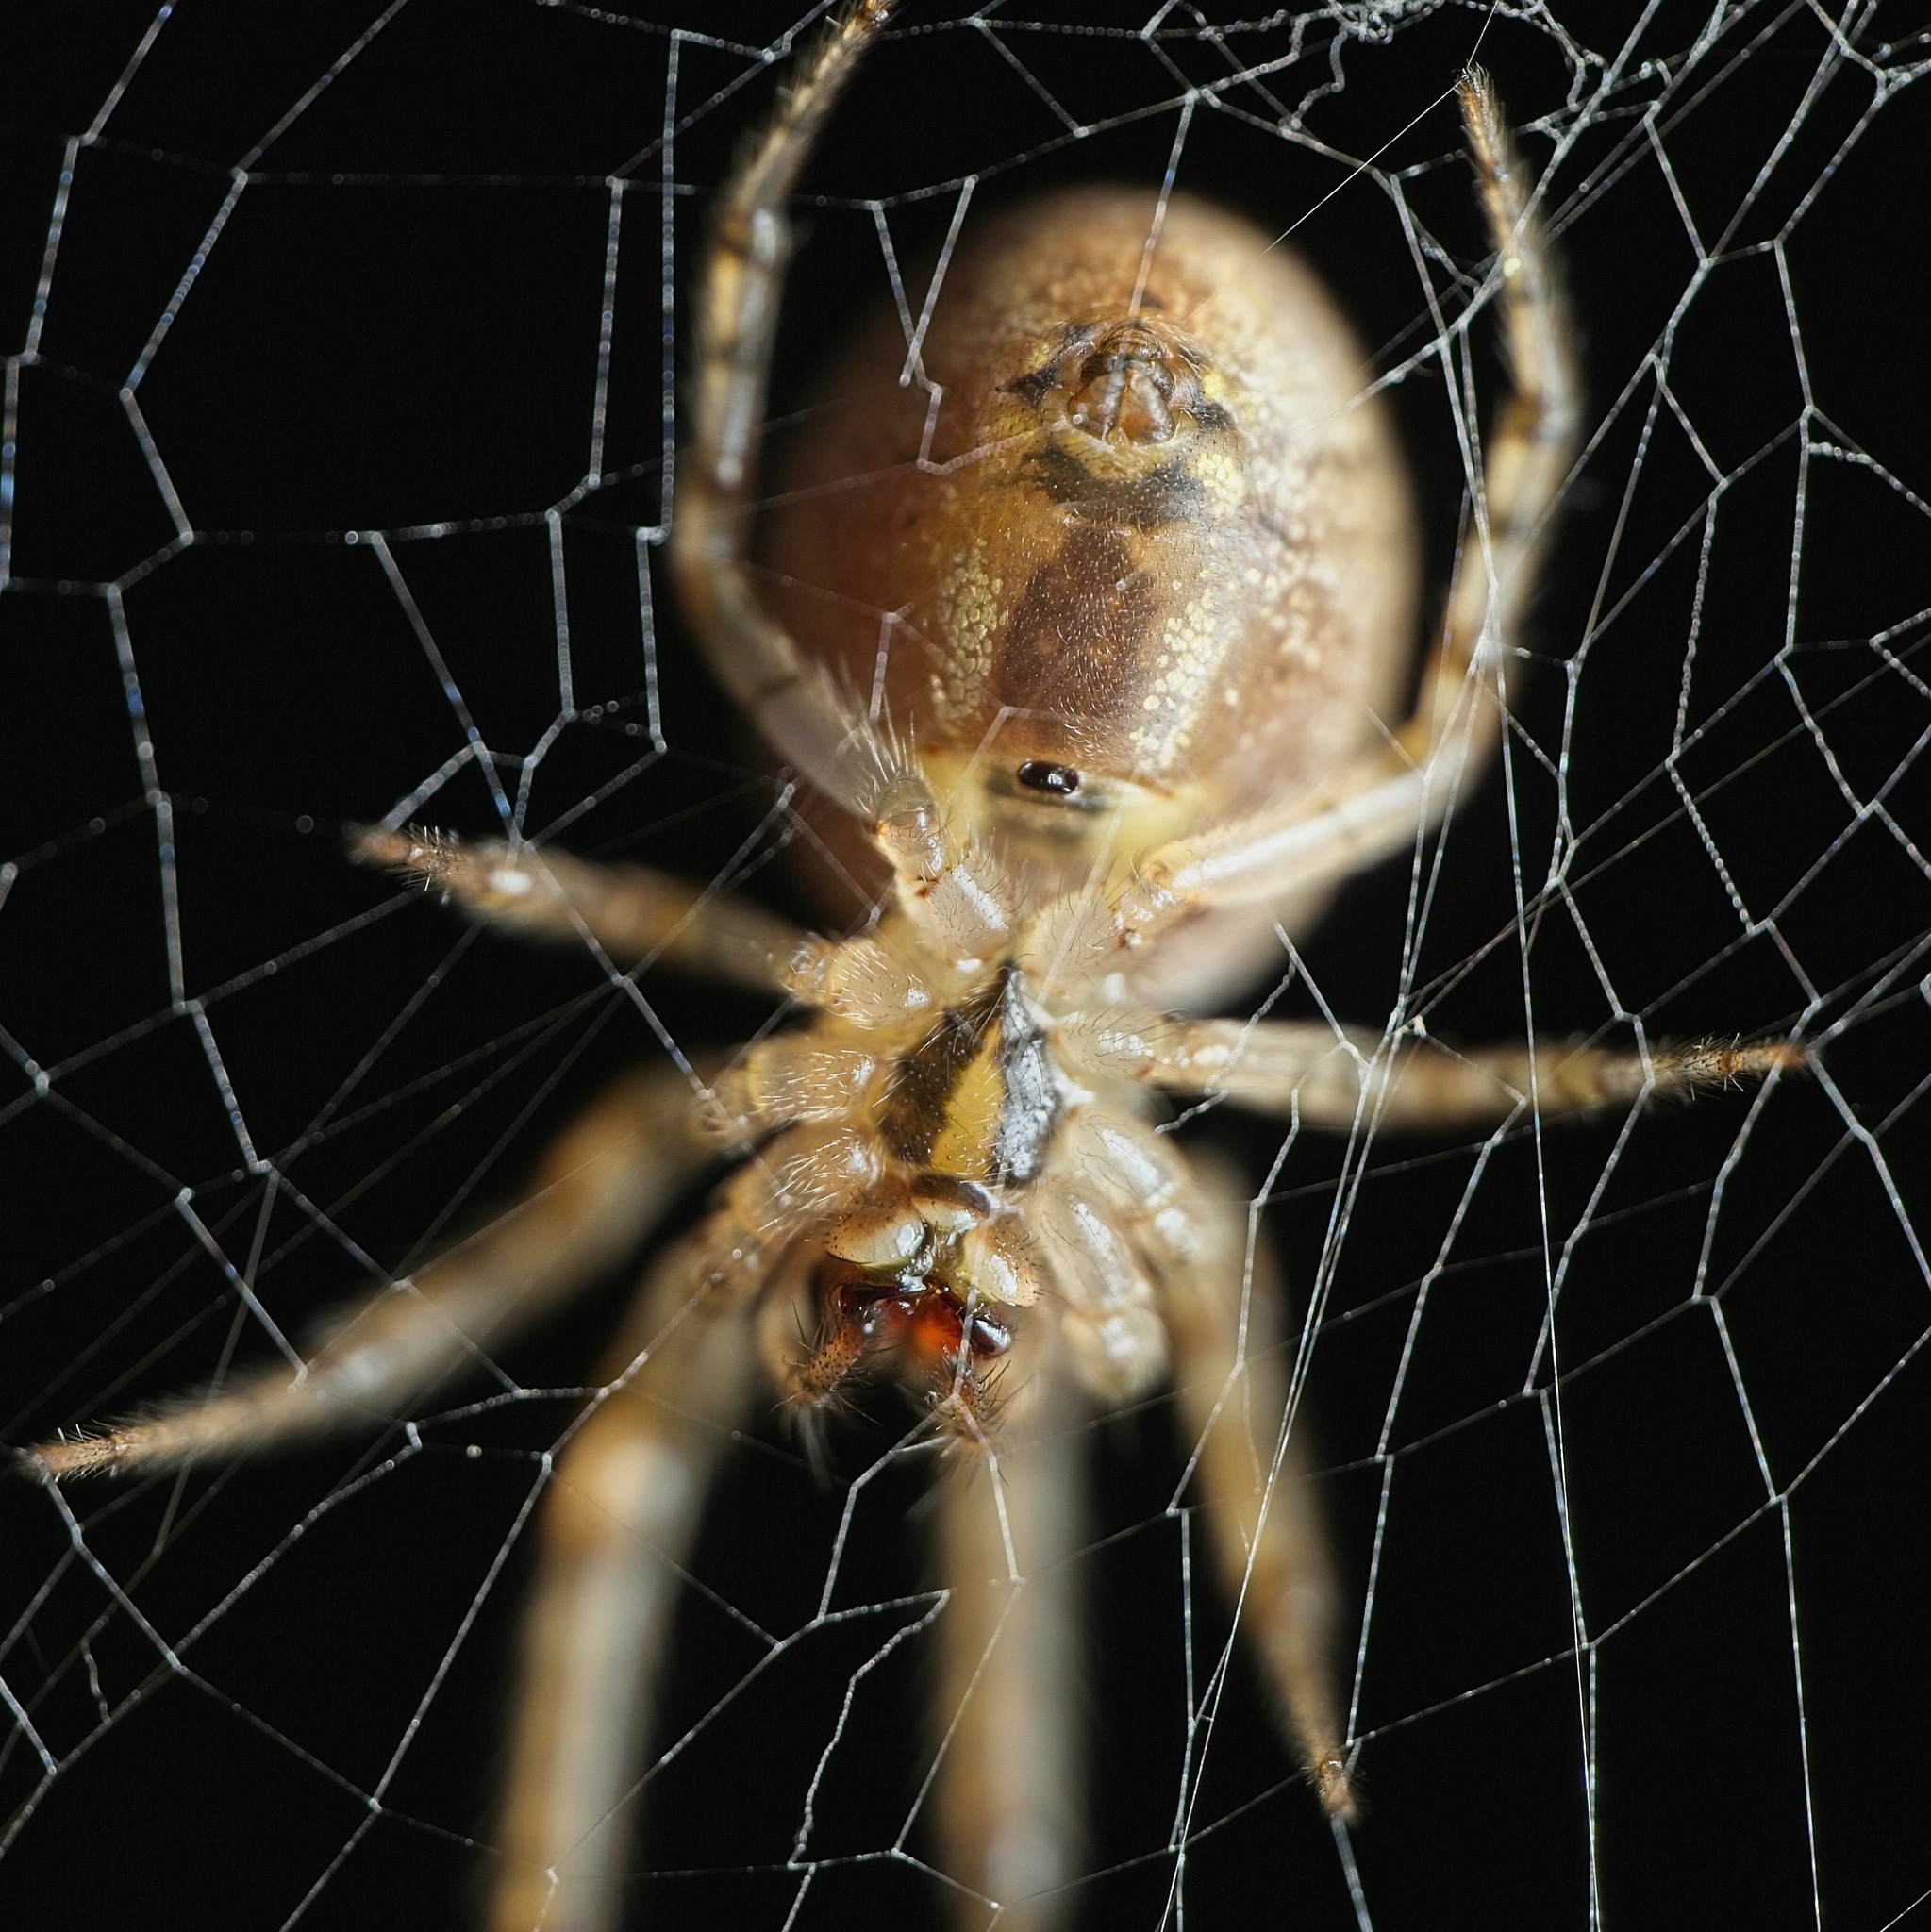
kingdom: Animalia
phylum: Arthropoda
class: Arachnida
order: Araneae
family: Araneidae
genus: Zygiella
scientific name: Zygiella x-notata
